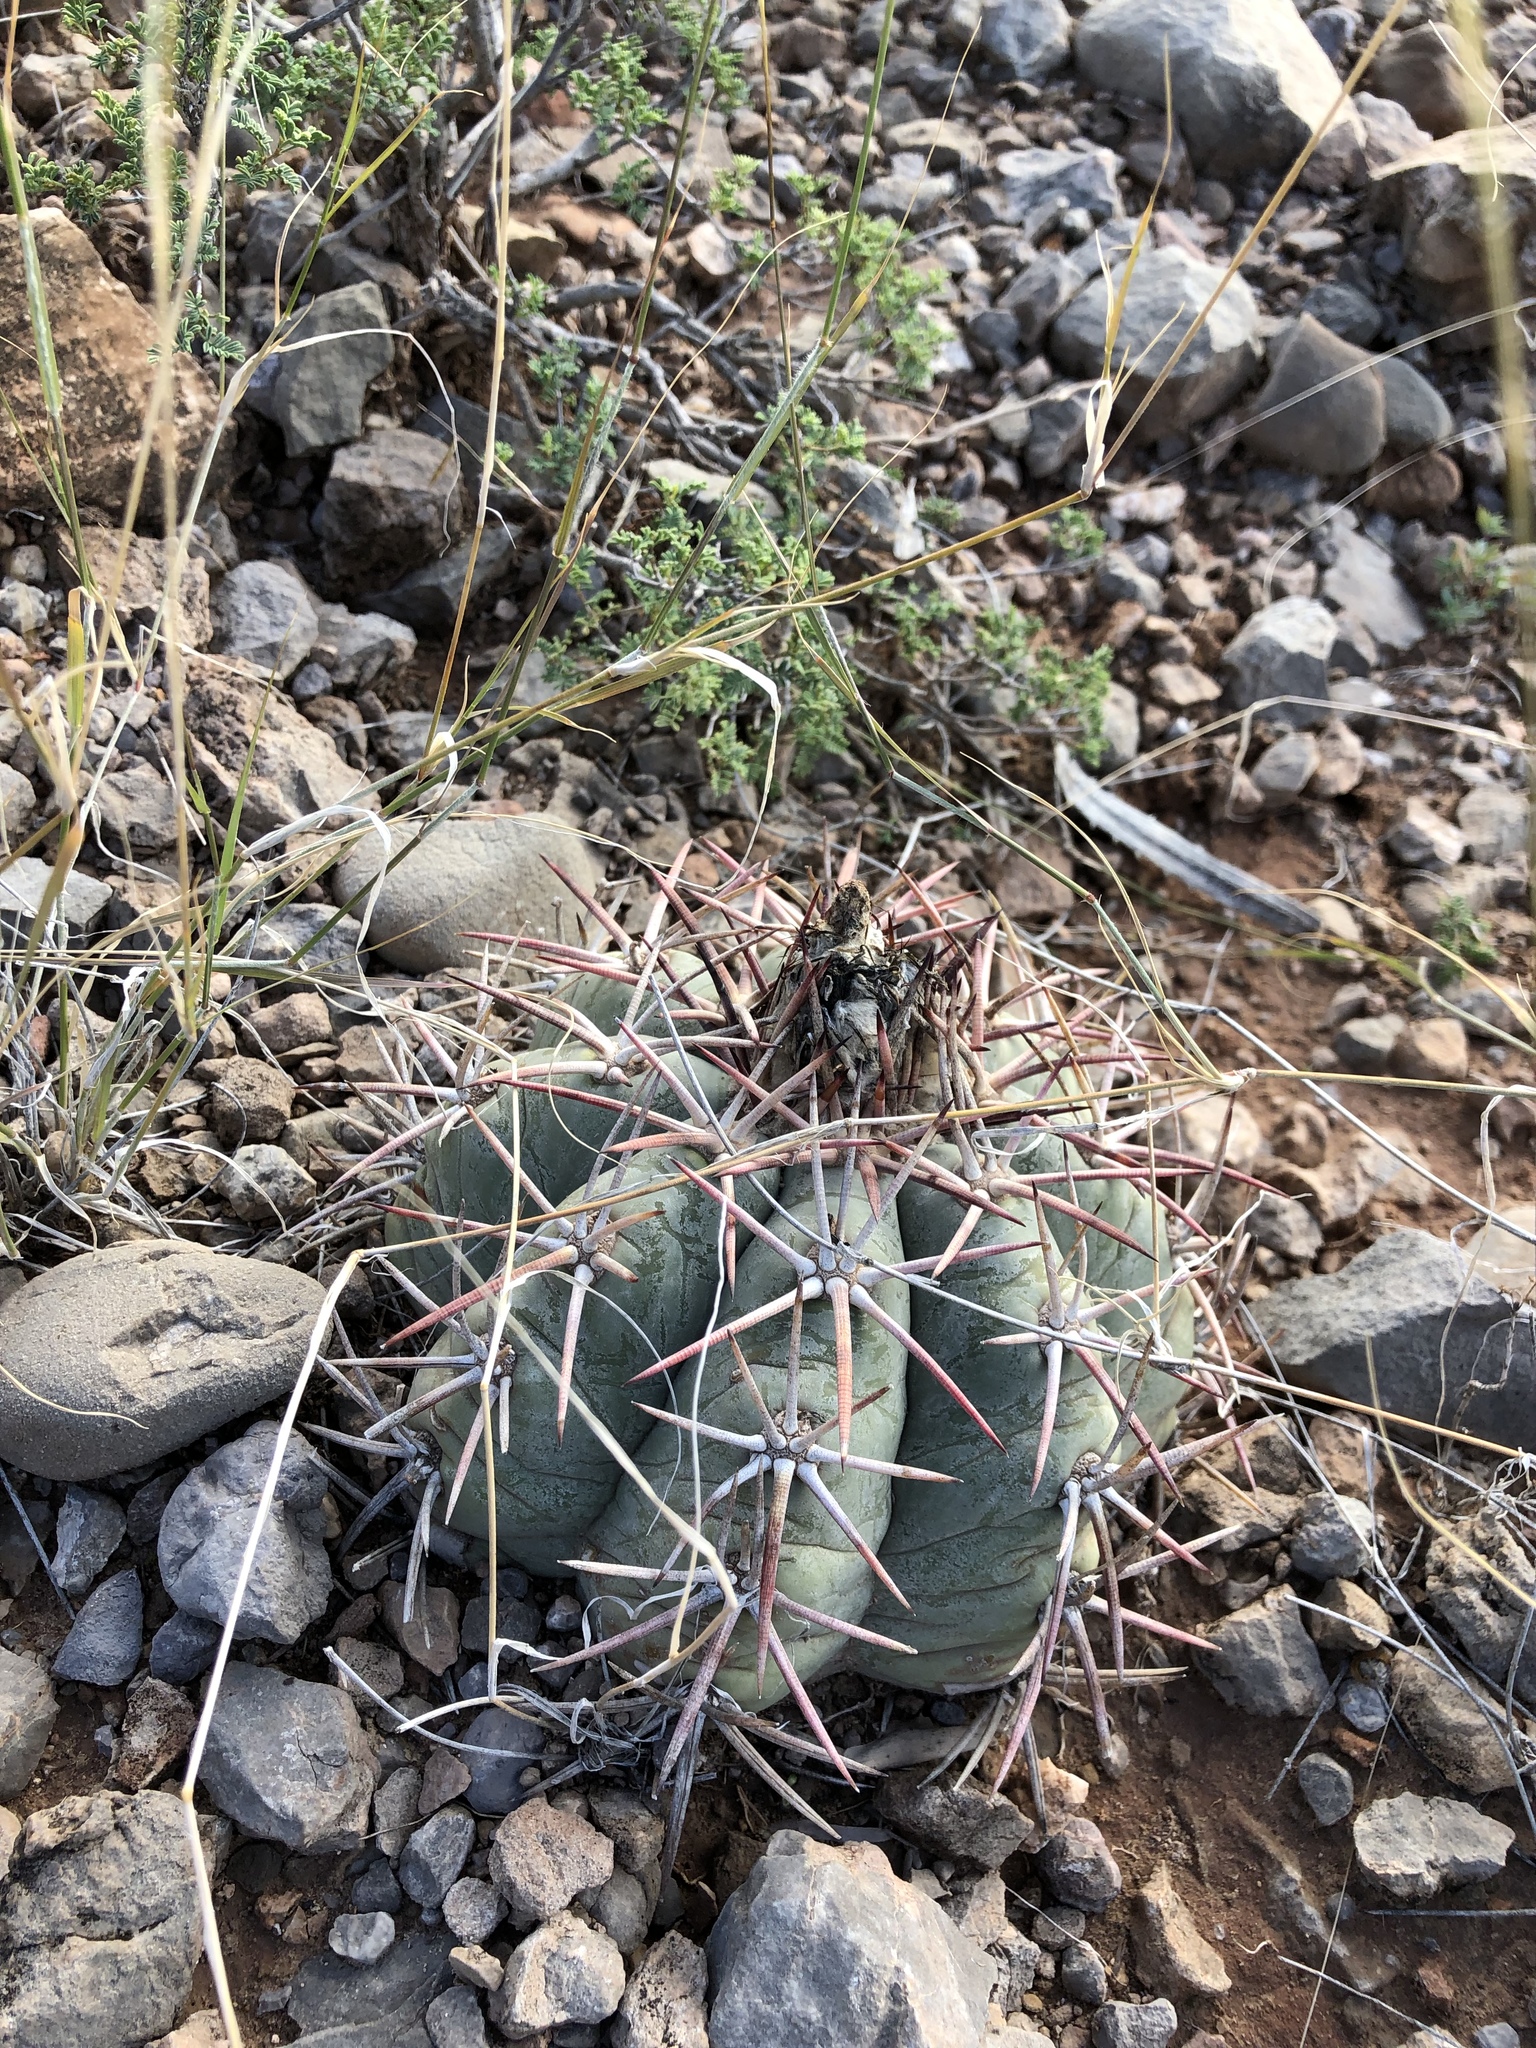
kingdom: Plantae
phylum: Tracheophyta
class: Magnoliopsida
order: Caryophyllales
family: Cactaceae
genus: Echinocactus
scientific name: Echinocactus horizonthalonius
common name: Devilshead
